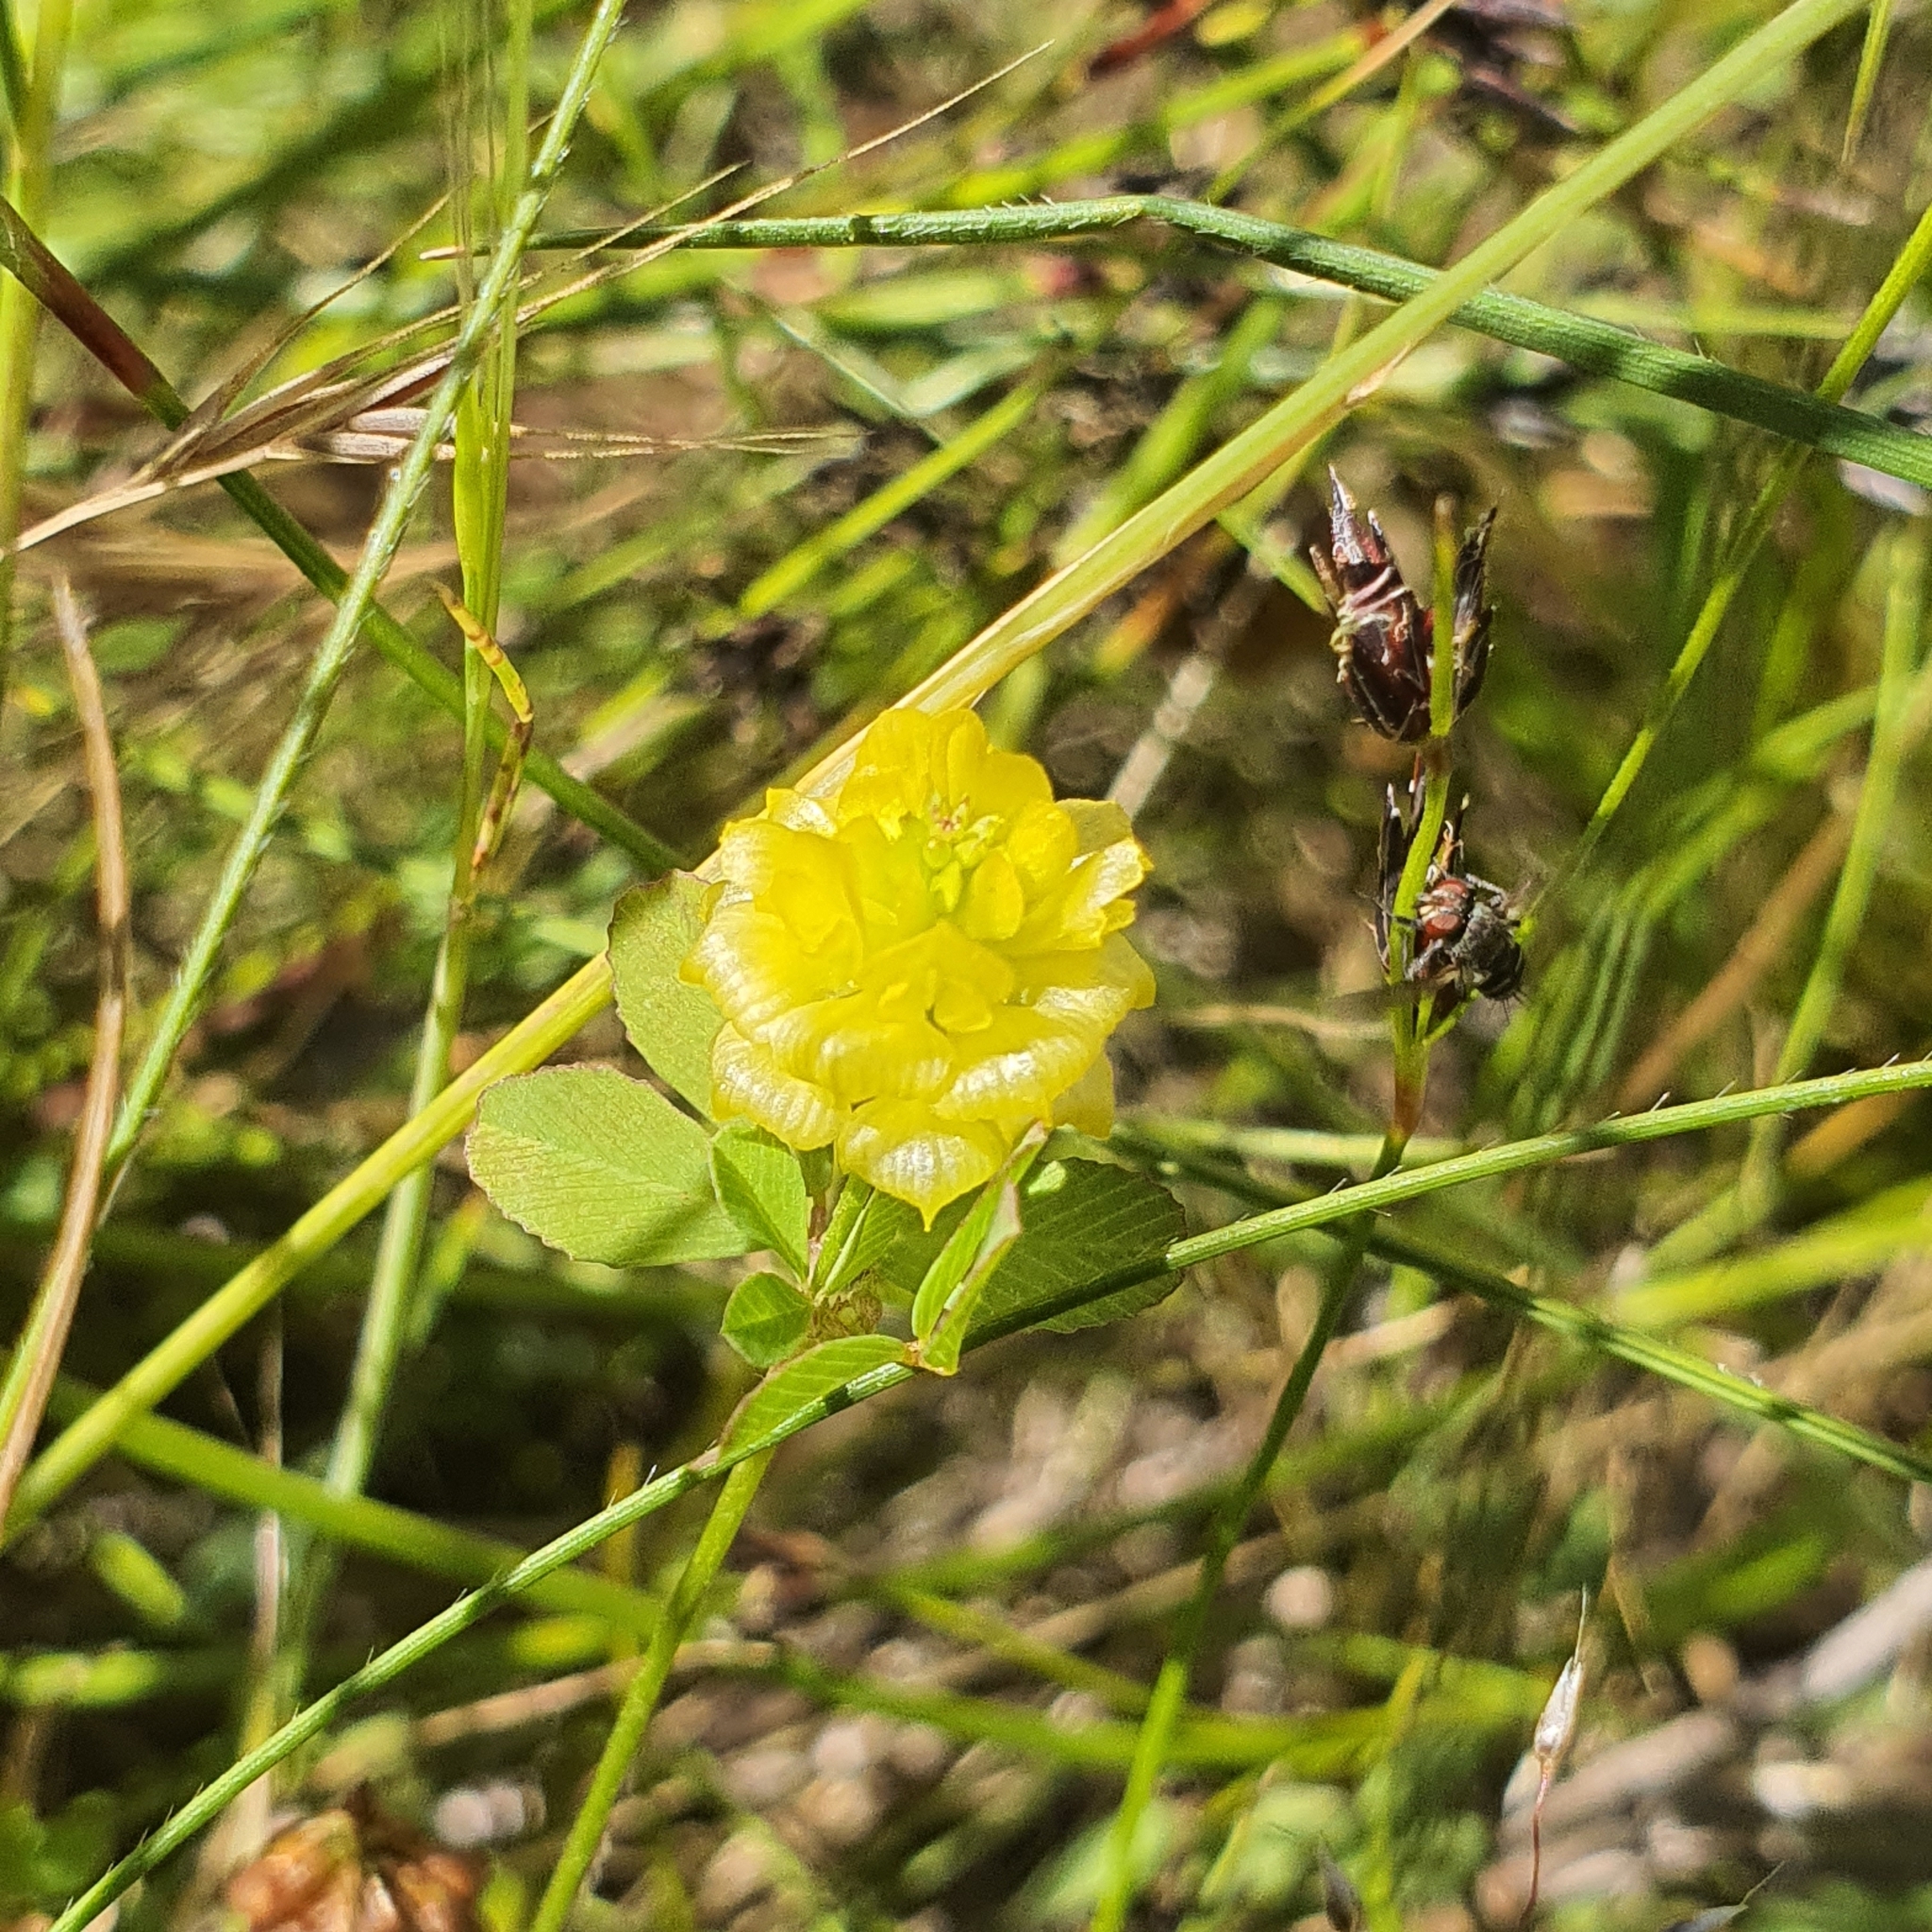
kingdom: Plantae
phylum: Tracheophyta
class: Magnoliopsida
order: Fabales
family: Fabaceae
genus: Trifolium
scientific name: Trifolium campestre
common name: Field clover
